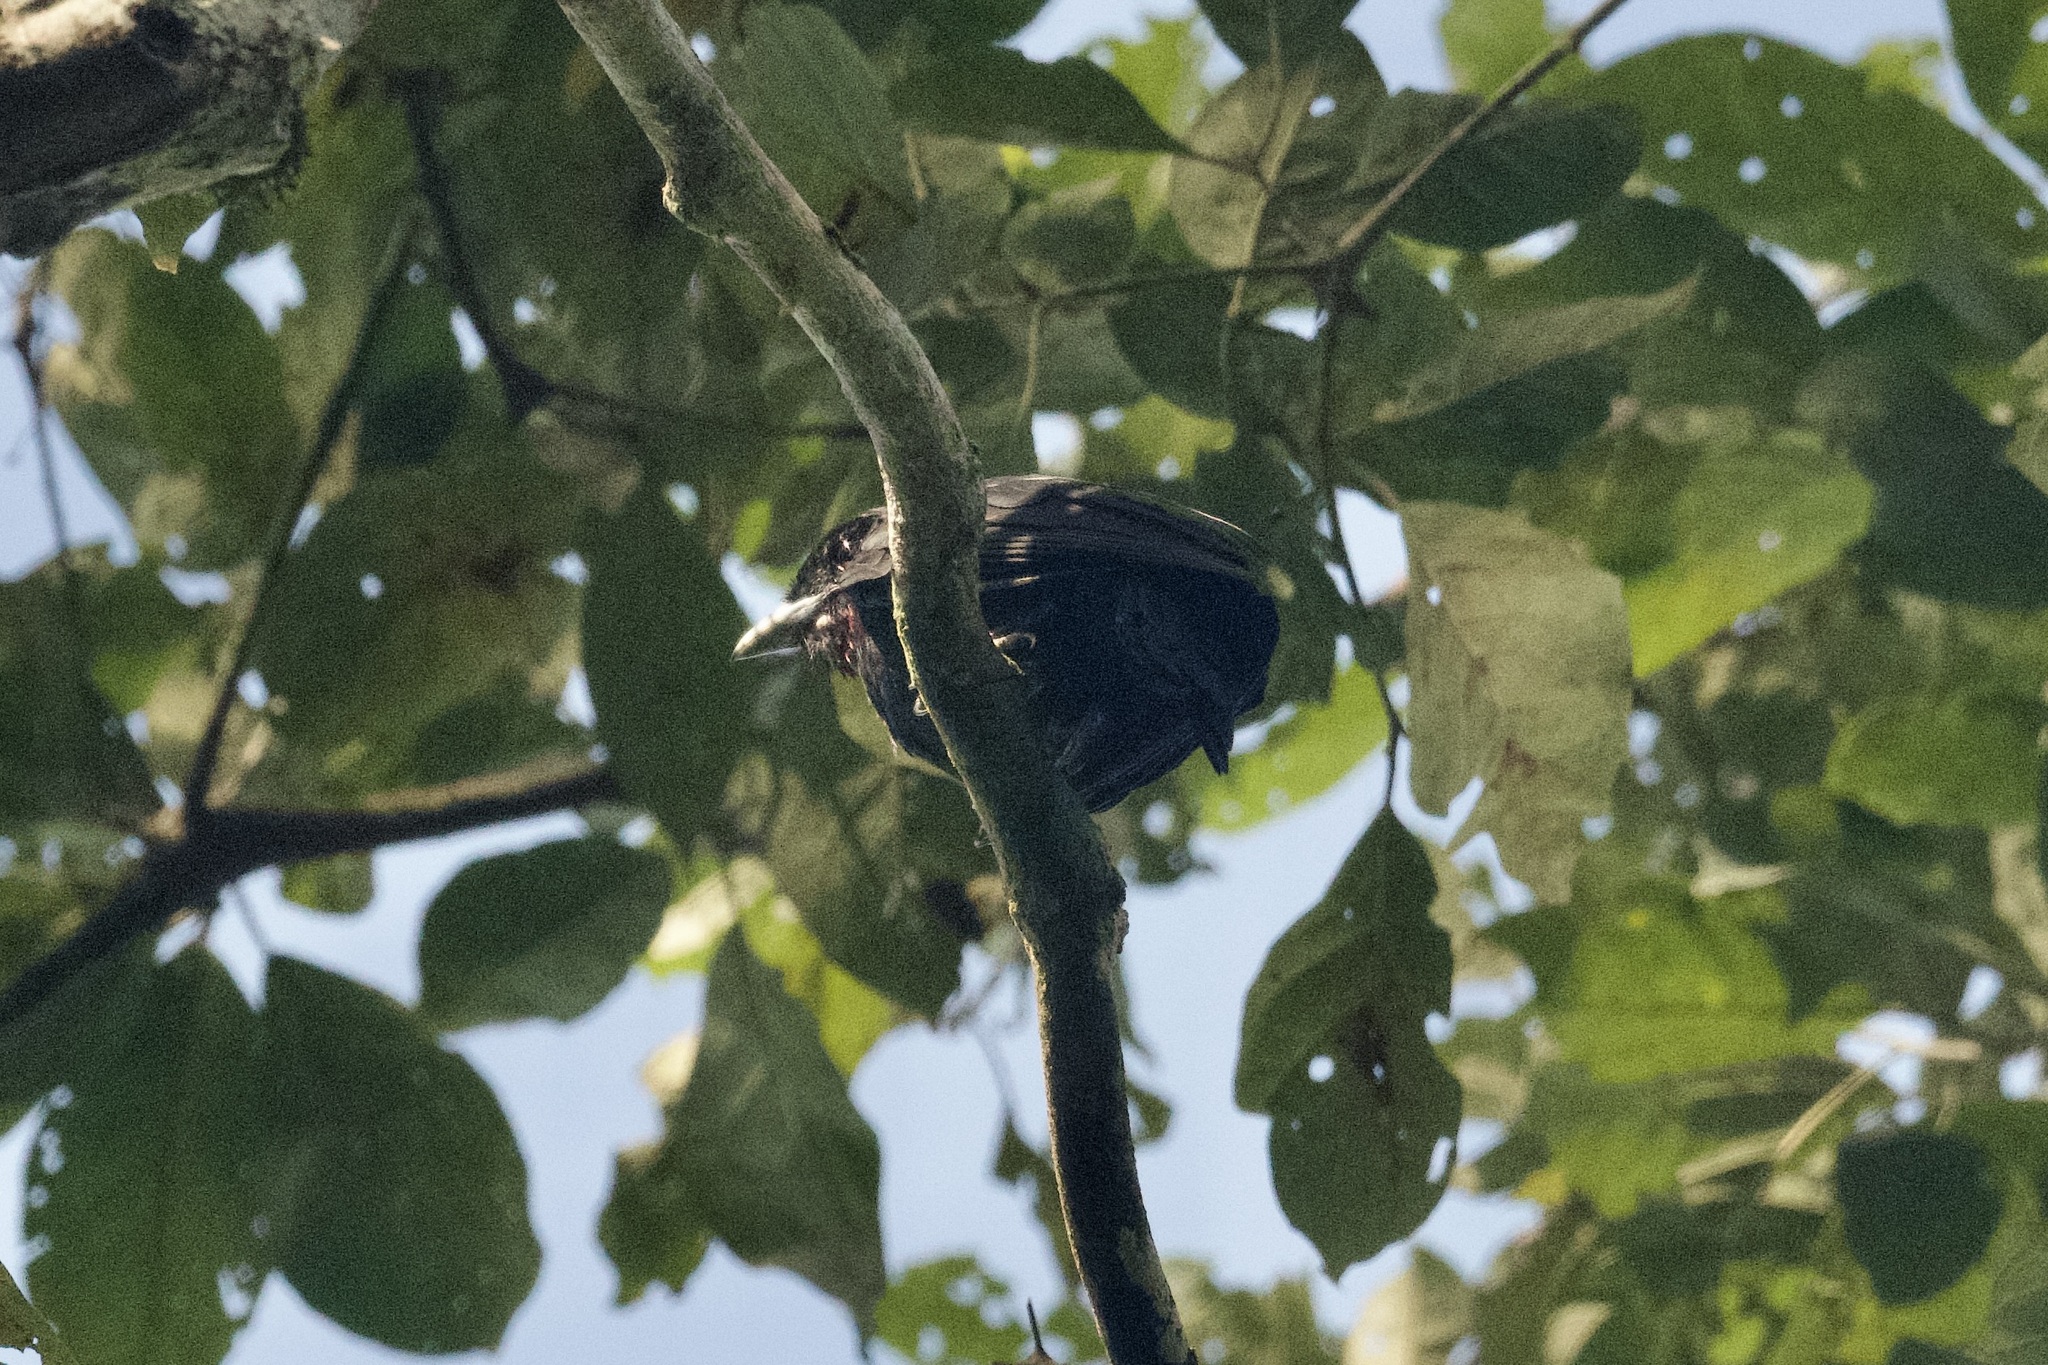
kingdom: Animalia
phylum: Chordata
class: Aves
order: Passeriformes
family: Cotingidae
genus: Querula
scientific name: Querula purpurata
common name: Purple-throated fruitcrow
